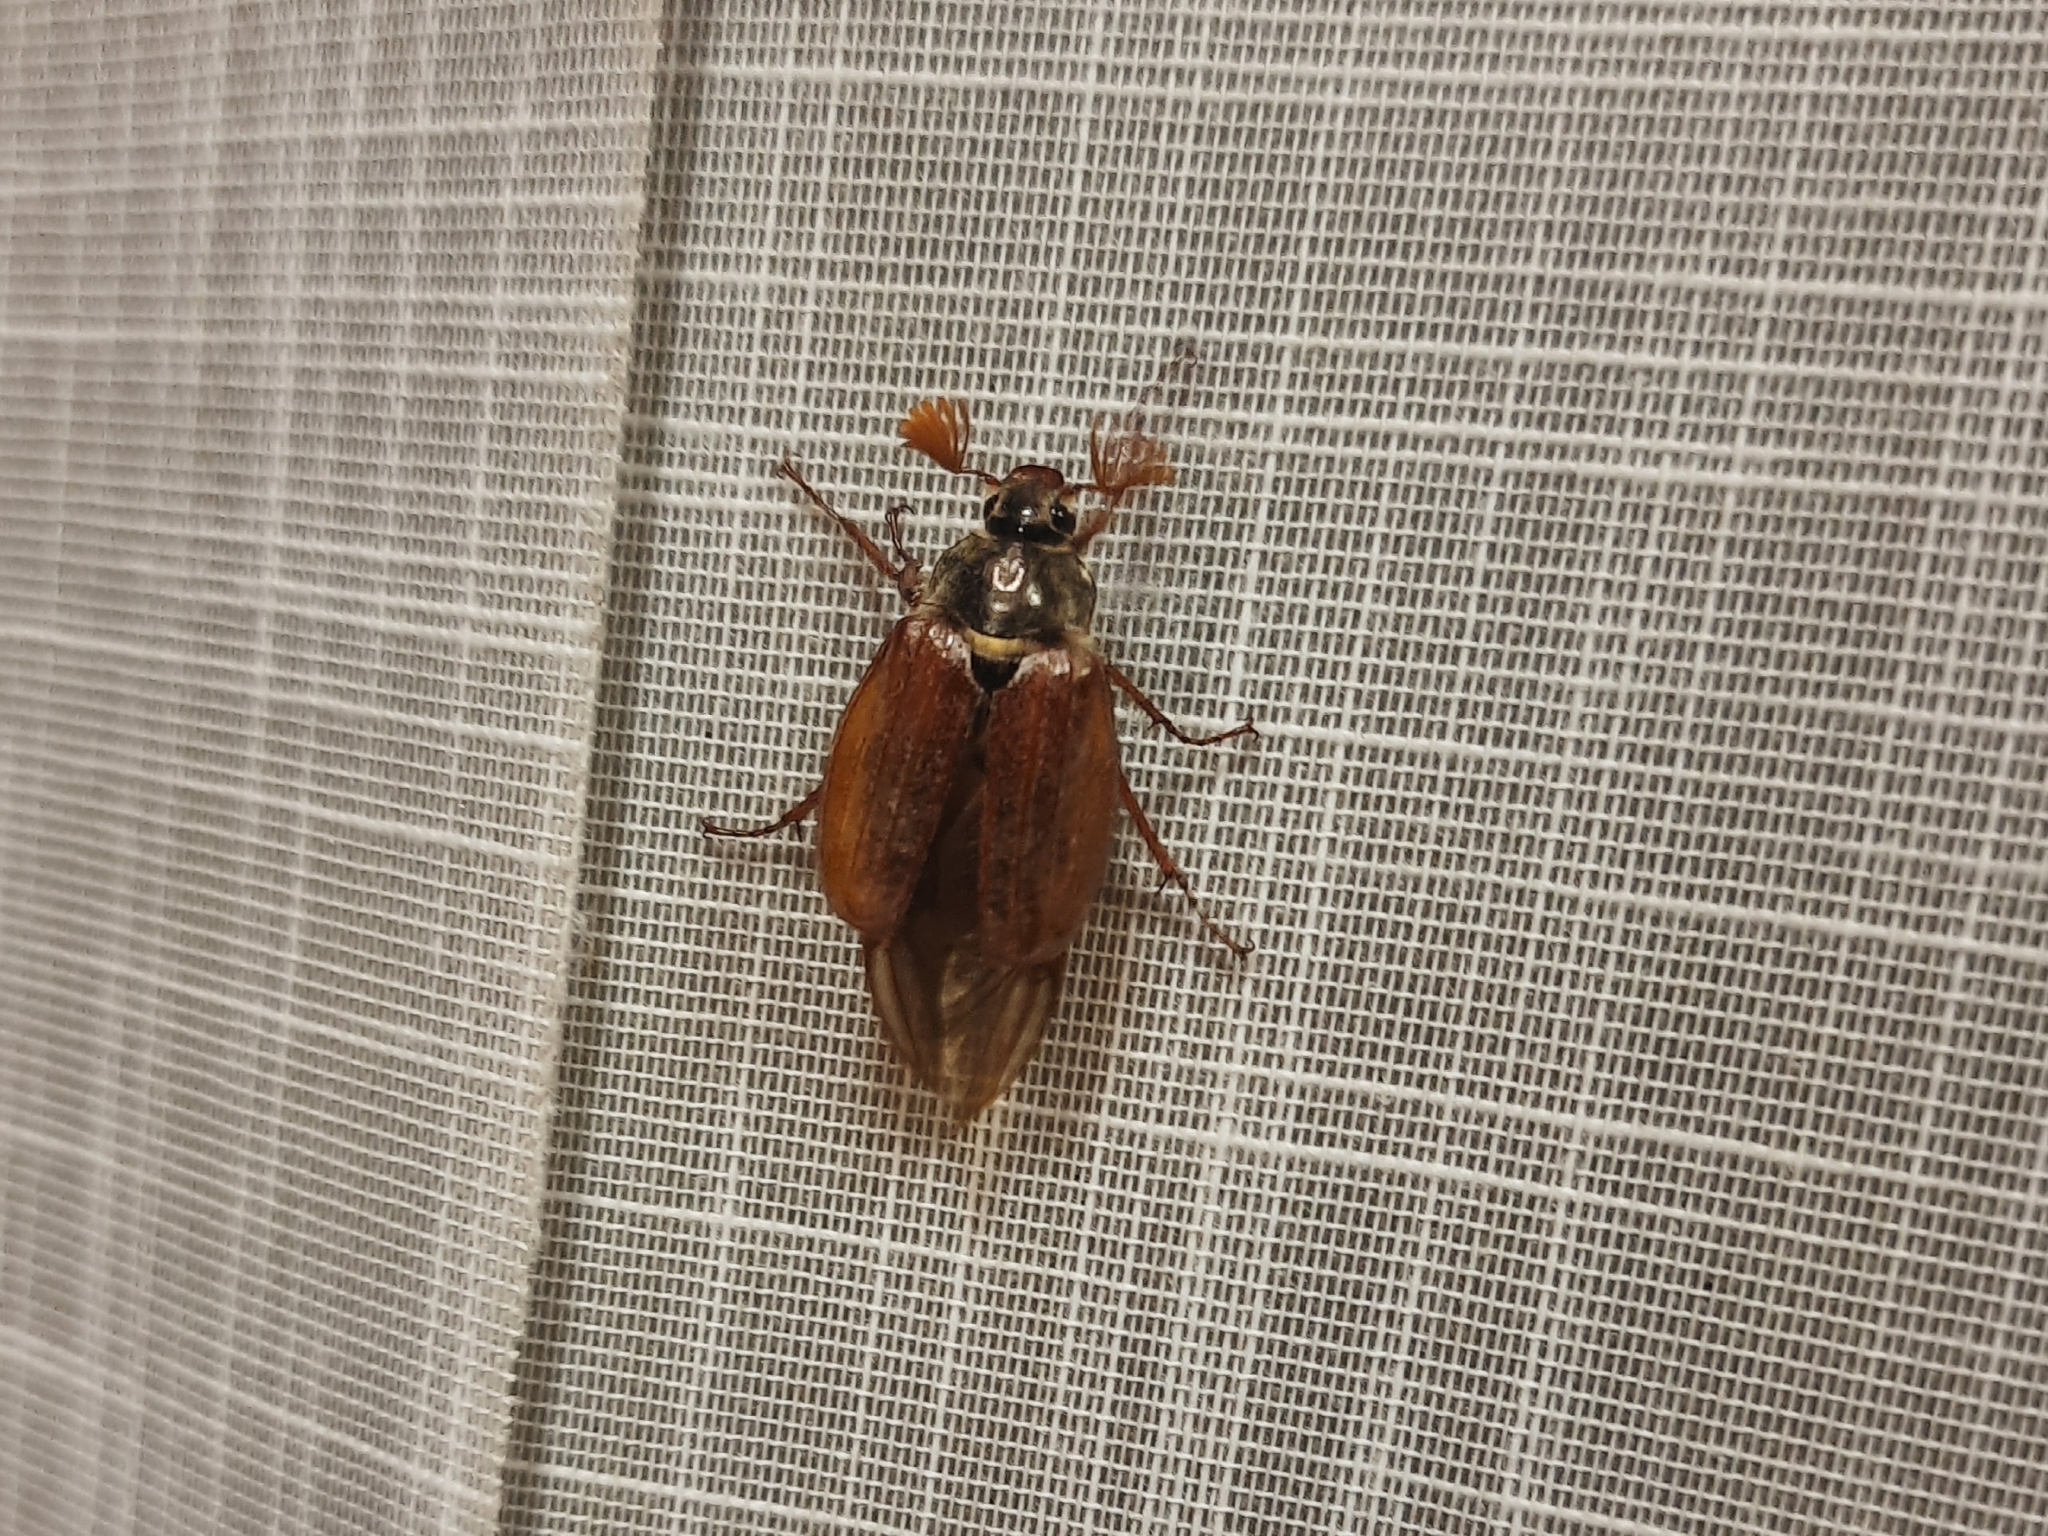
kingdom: Animalia
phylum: Arthropoda
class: Insecta
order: Coleoptera
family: Scarabaeidae
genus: Melolontha
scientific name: Melolontha melolontha
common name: Cockchafer maybeetle
